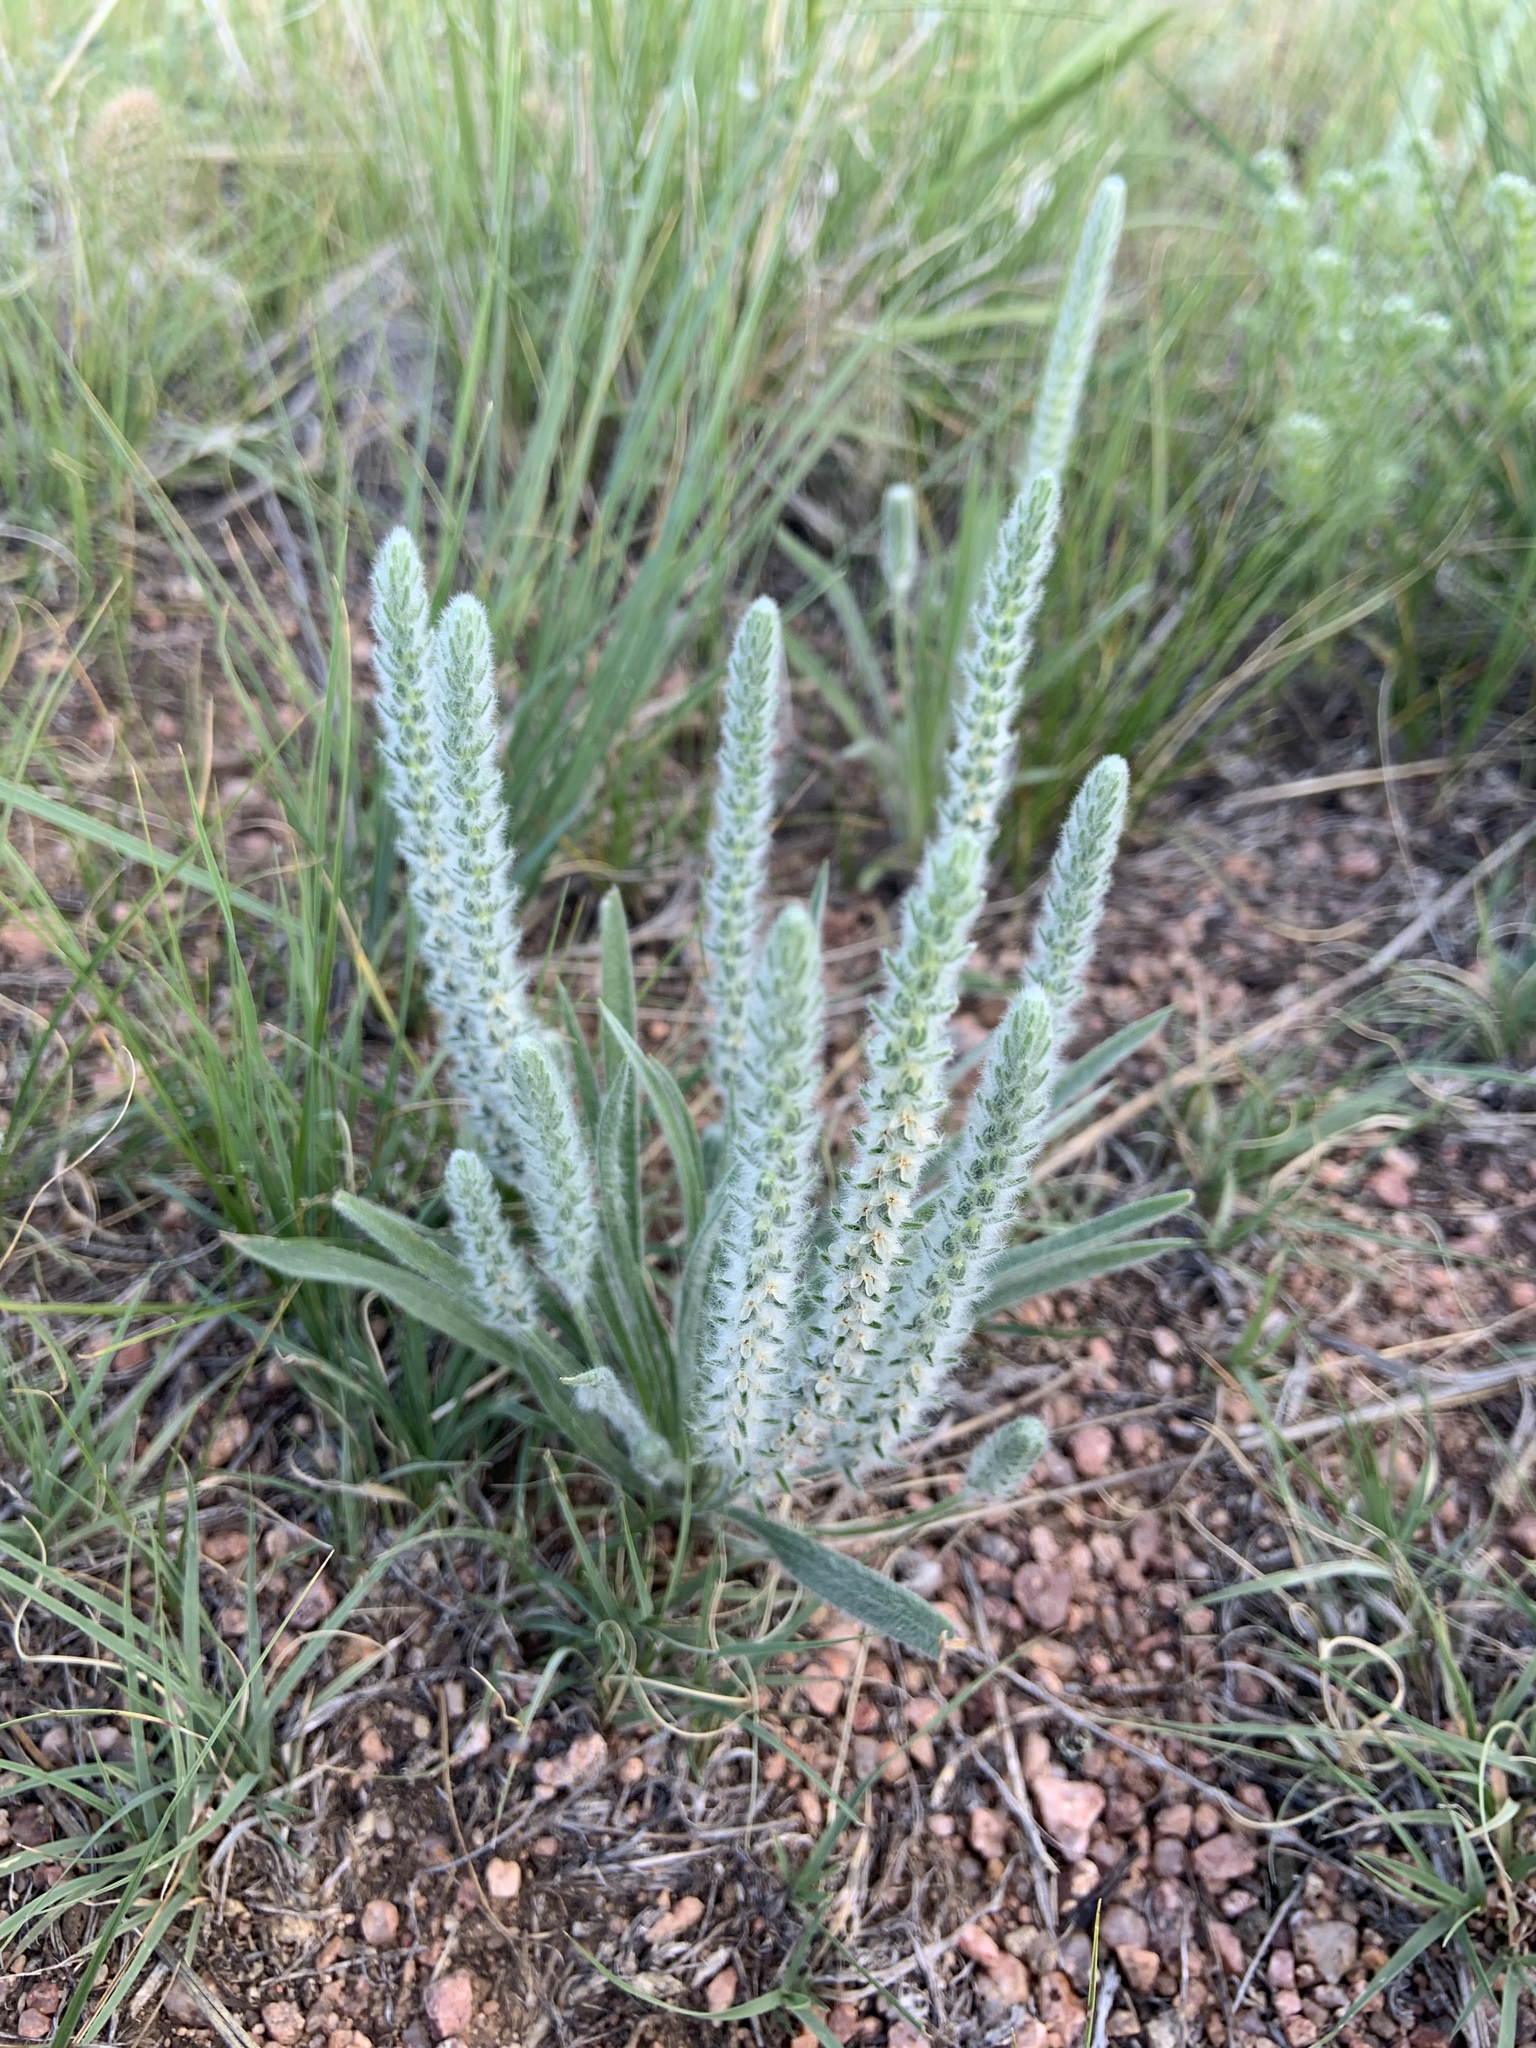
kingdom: Plantae
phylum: Tracheophyta
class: Magnoliopsida
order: Lamiales
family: Plantaginaceae
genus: Plantago
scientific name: Plantago patagonica
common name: Patagonia indian-wheat
